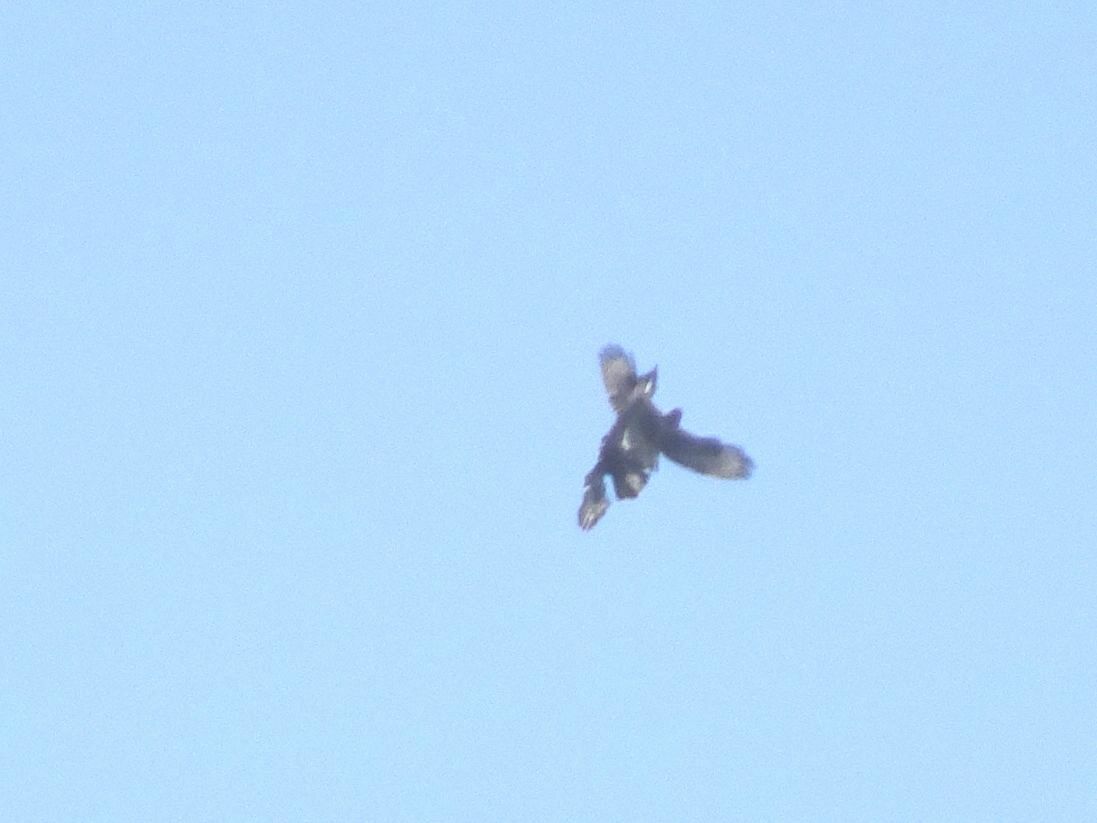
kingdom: Animalia
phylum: Chordata
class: Aves
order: Accipitriformes
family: Accipitridae
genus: Buteo
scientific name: Buteo buteo
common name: Common buzzard
